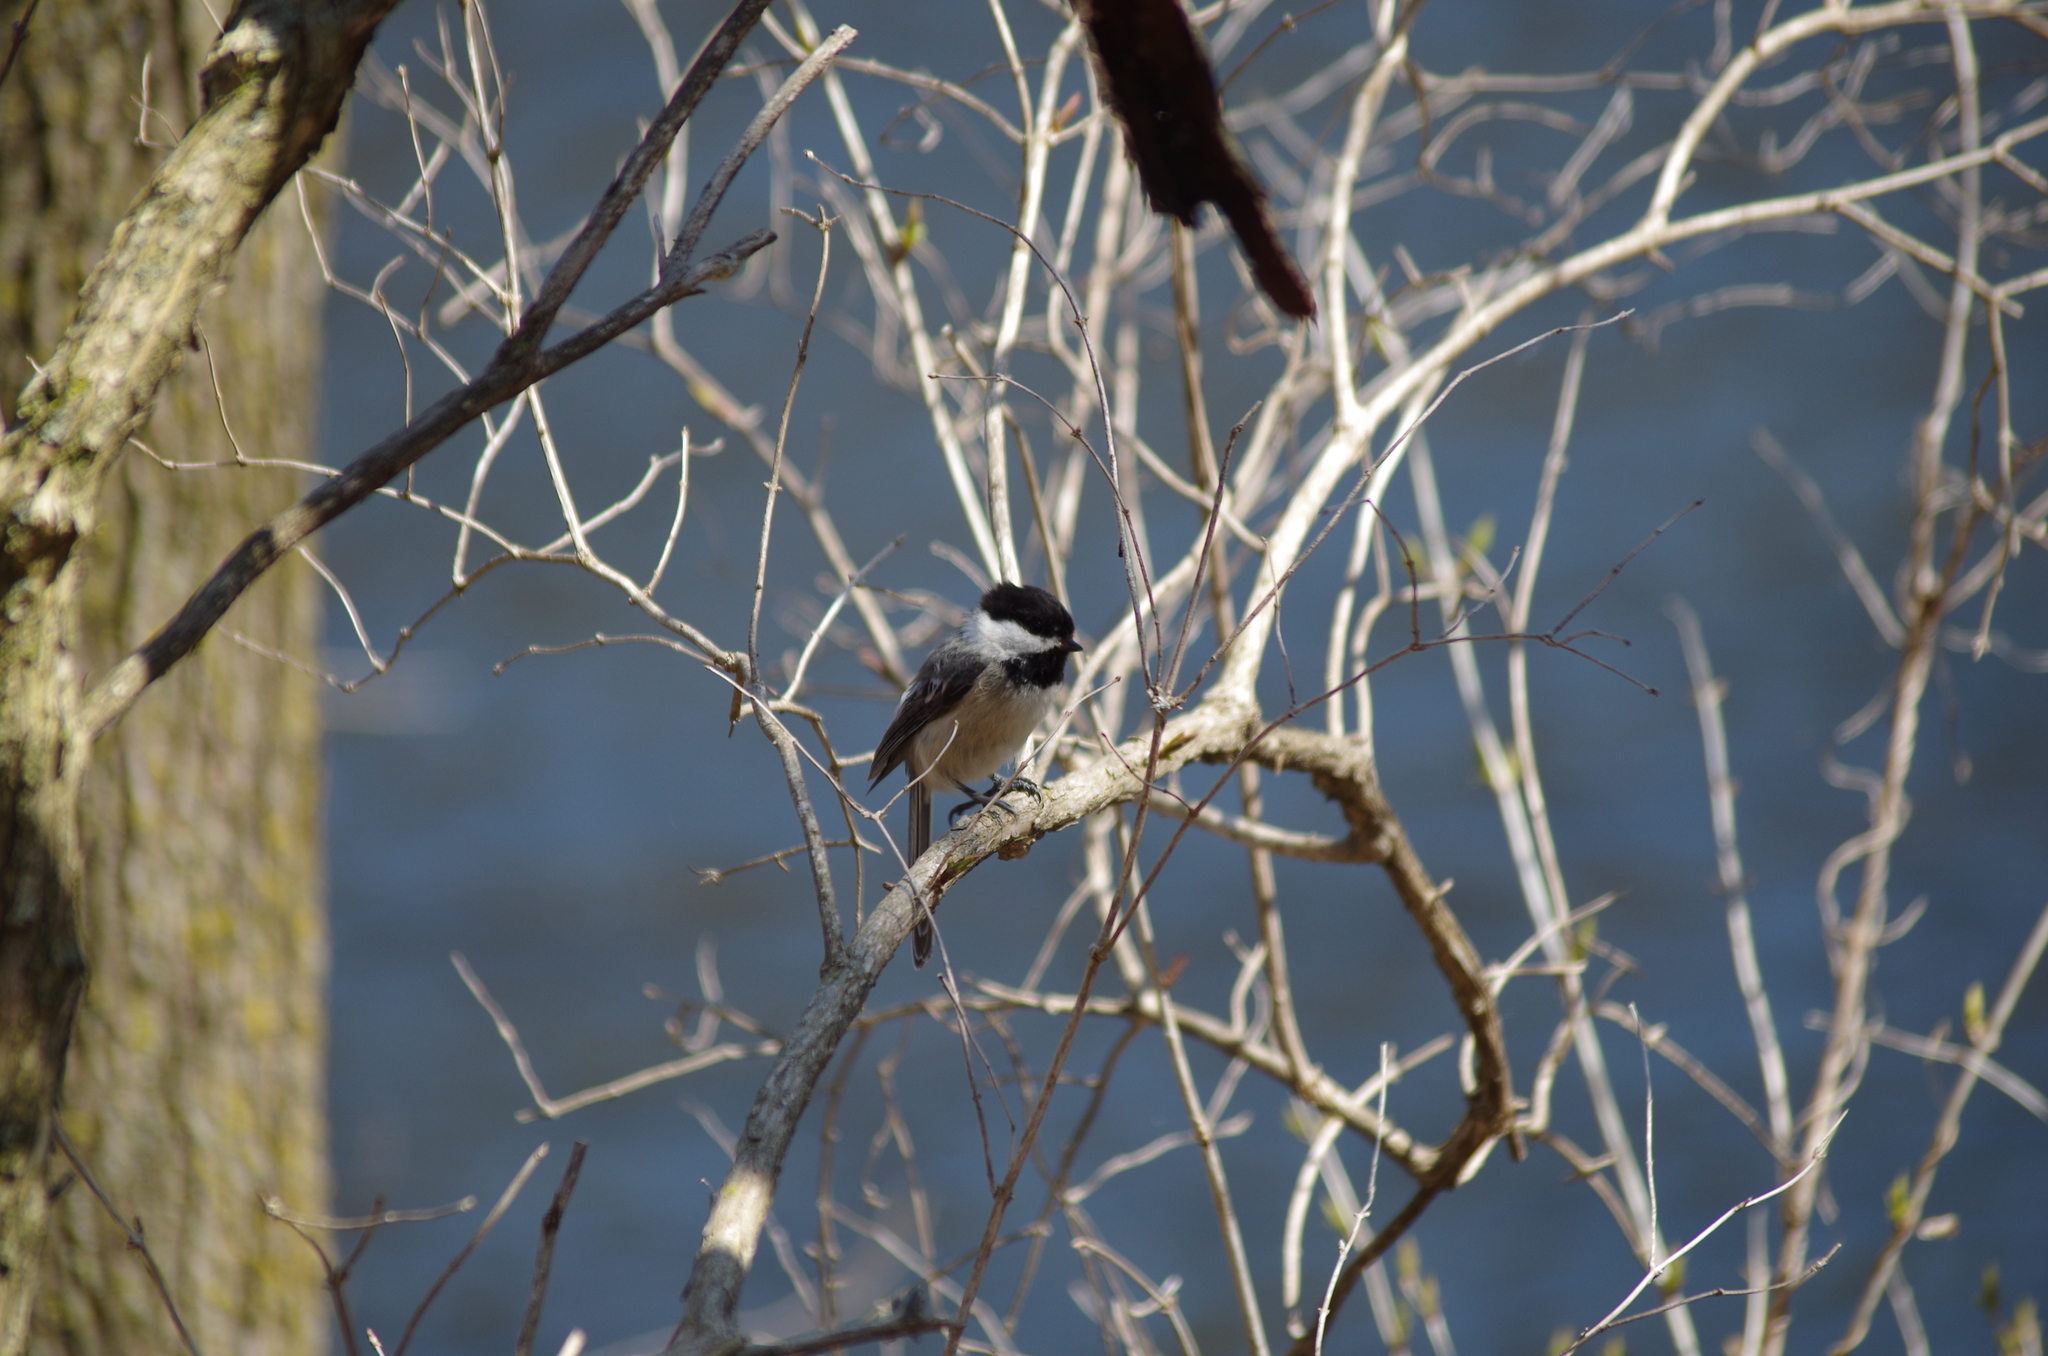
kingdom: Animalia
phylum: Chordata
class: Aves
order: Passeriformes
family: Paridae
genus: Poecile
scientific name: Poecile atricapillus
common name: Black-capped chickadee
